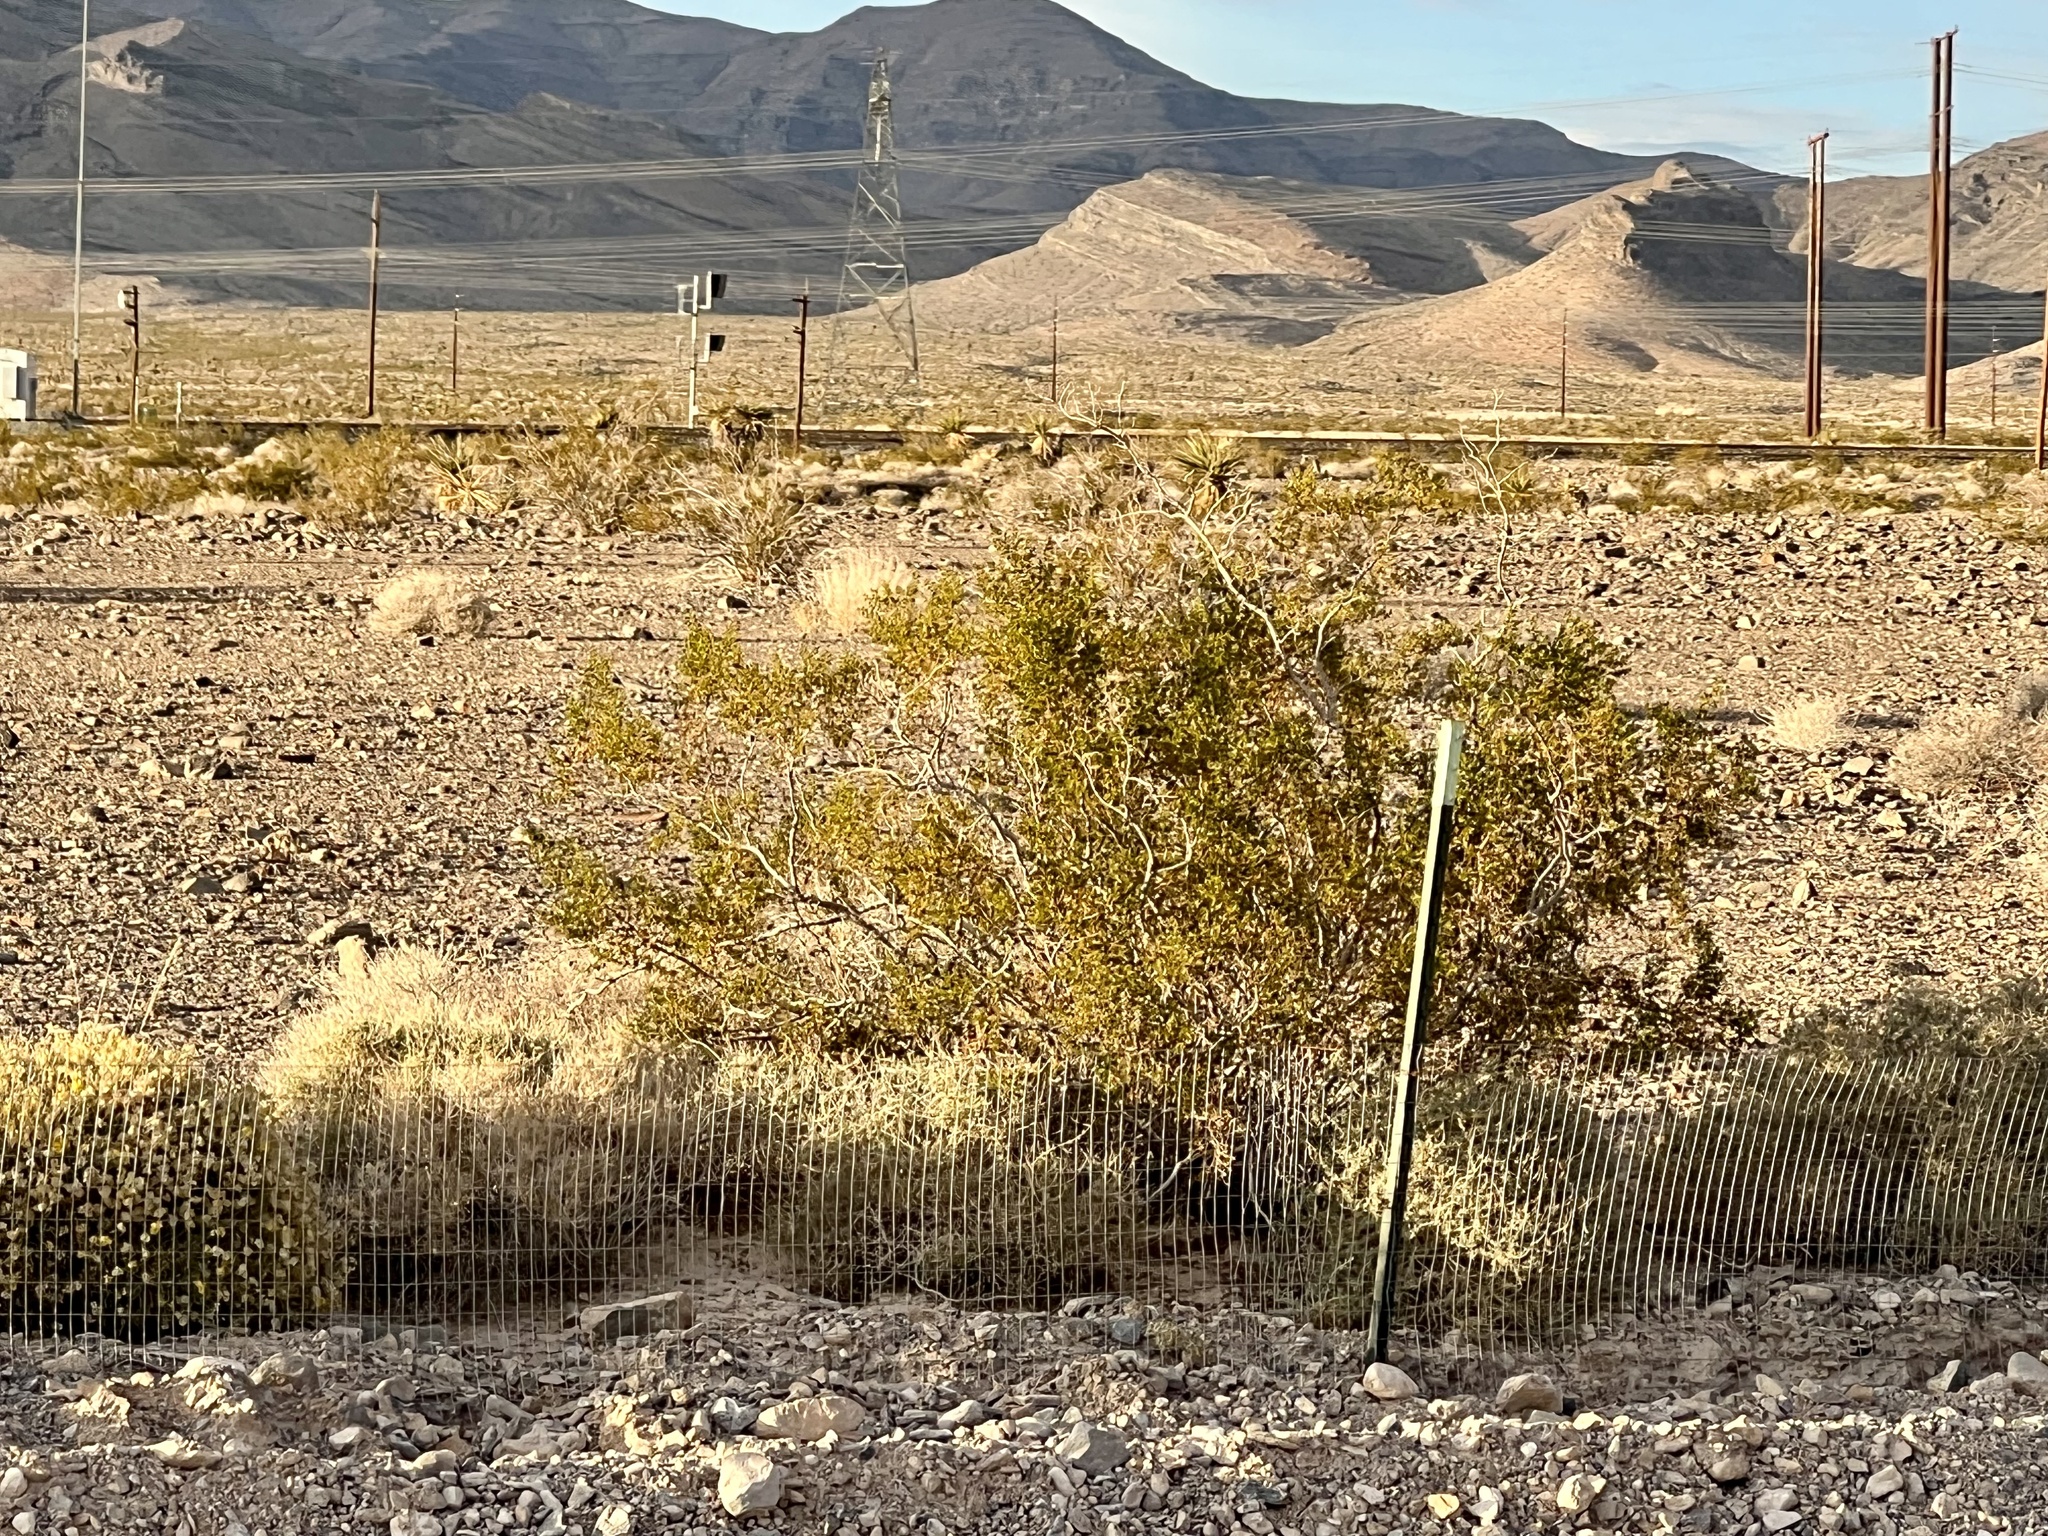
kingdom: Plantae
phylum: Tracheophyta
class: Magnoliopsida
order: Zygophyllales
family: Zygophyllaceae
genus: Larrea
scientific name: Larrea tridentata
